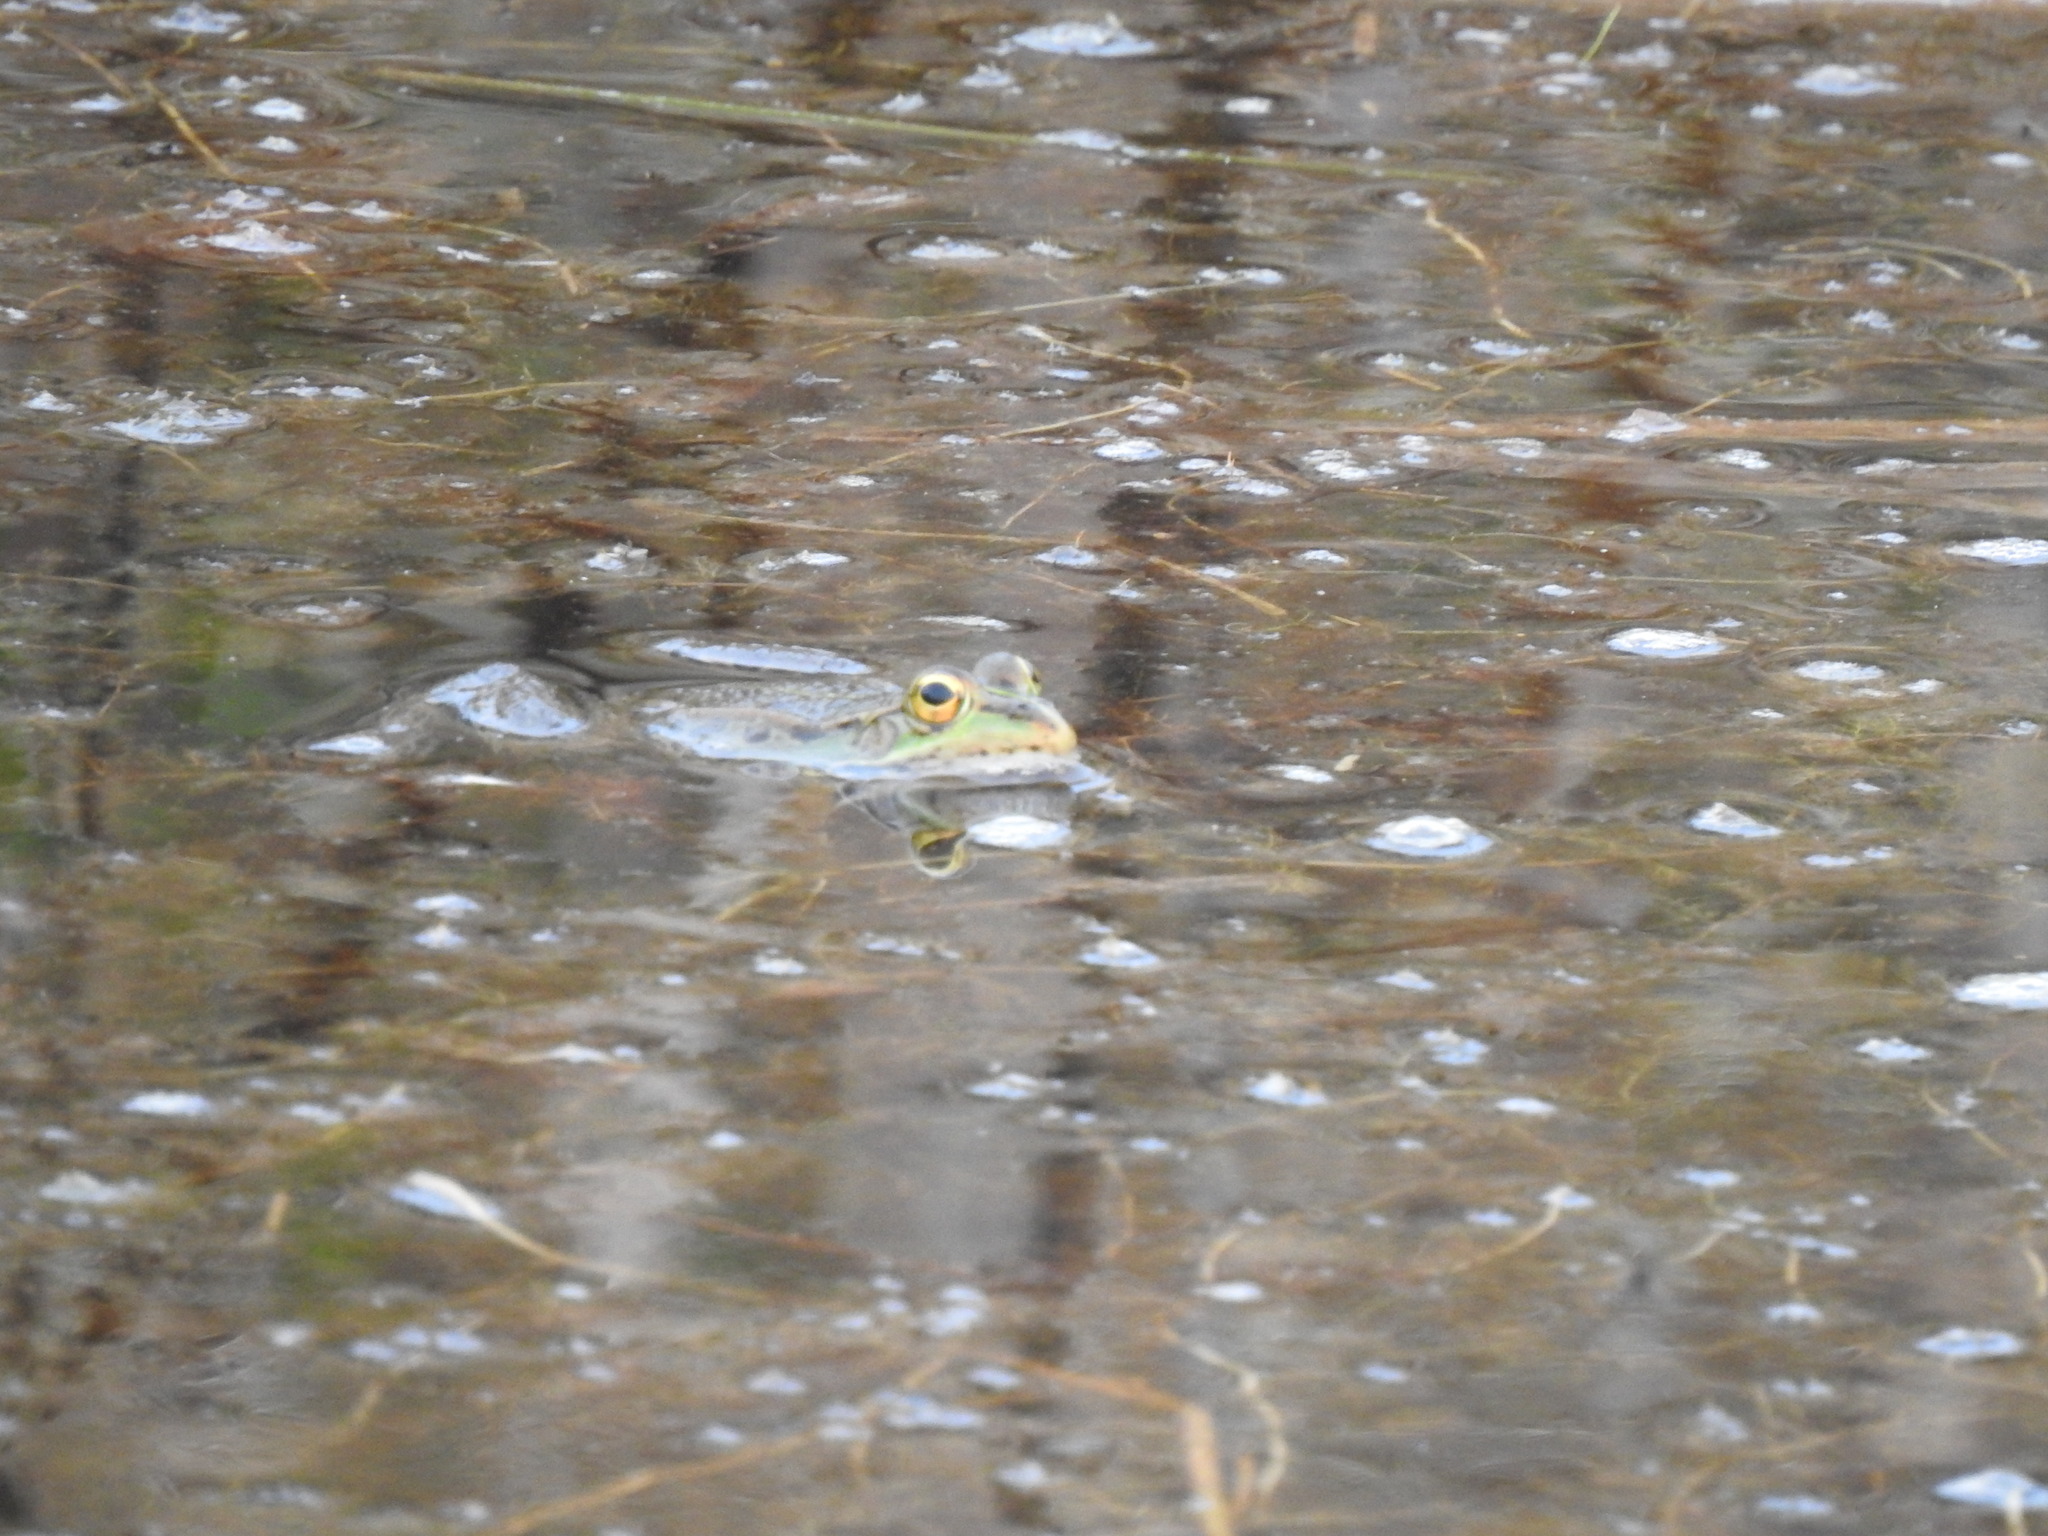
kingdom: Animalia
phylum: Chordata
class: Amphibia
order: Anura
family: Ranidae
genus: Pelophylax
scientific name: Pelophylax perezi
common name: Perez's frog
